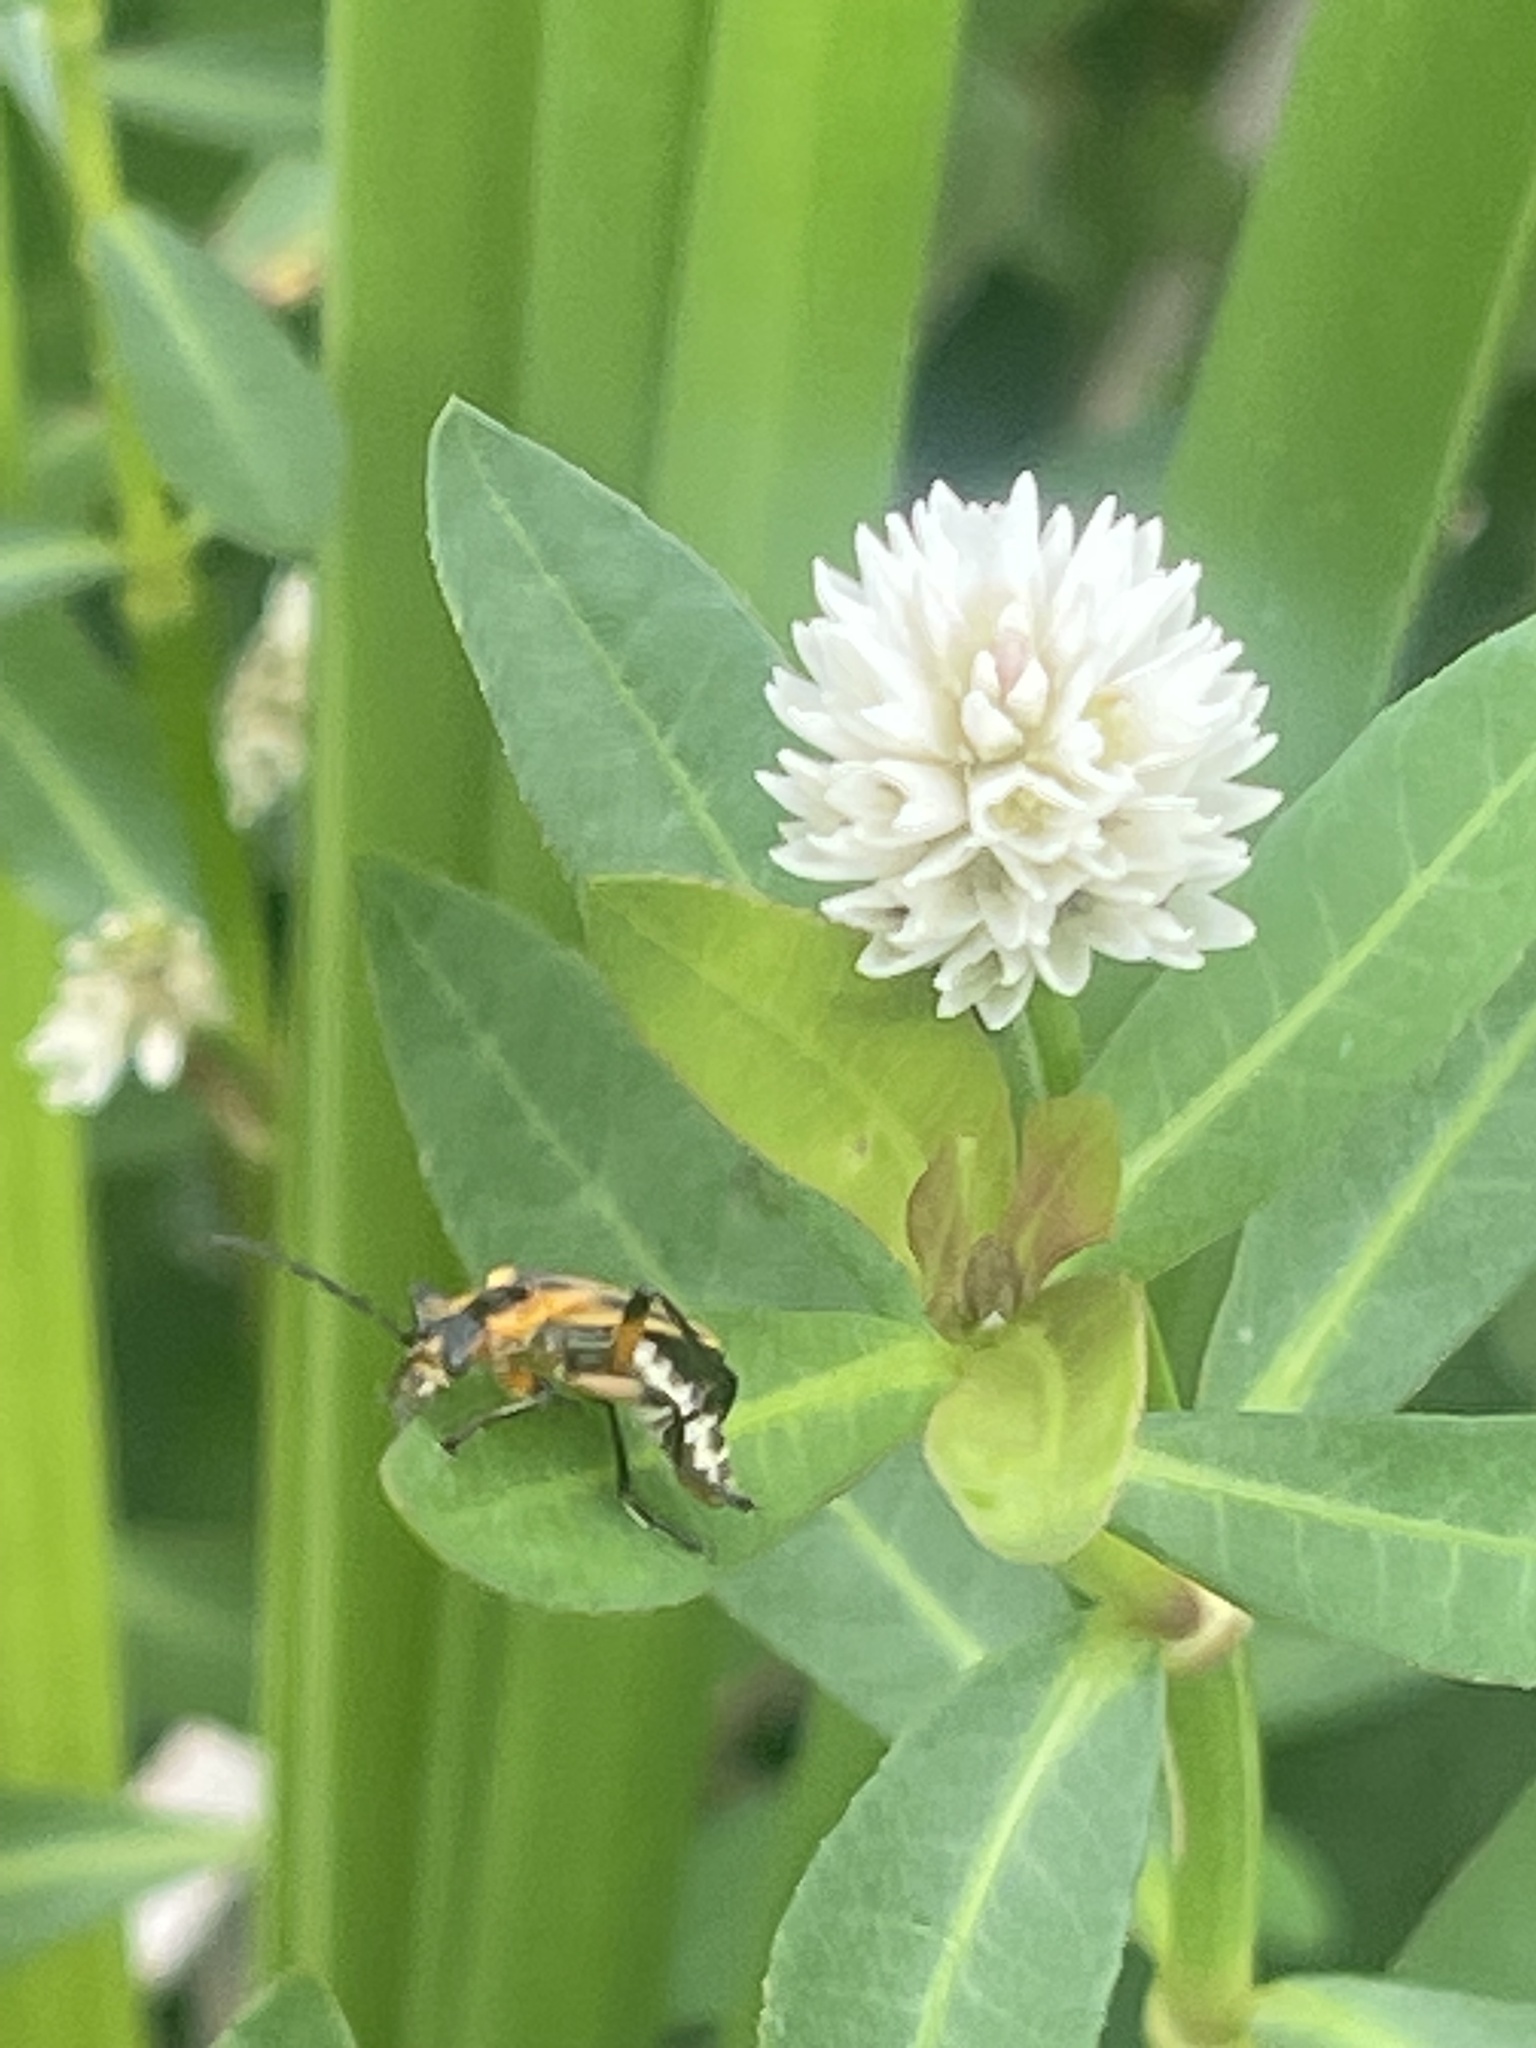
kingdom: Animalia
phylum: Arthropoda
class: Insecta
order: Coleoptera
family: Cantharidae
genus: Chauliognathus
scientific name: Chauliognathus marginatus
